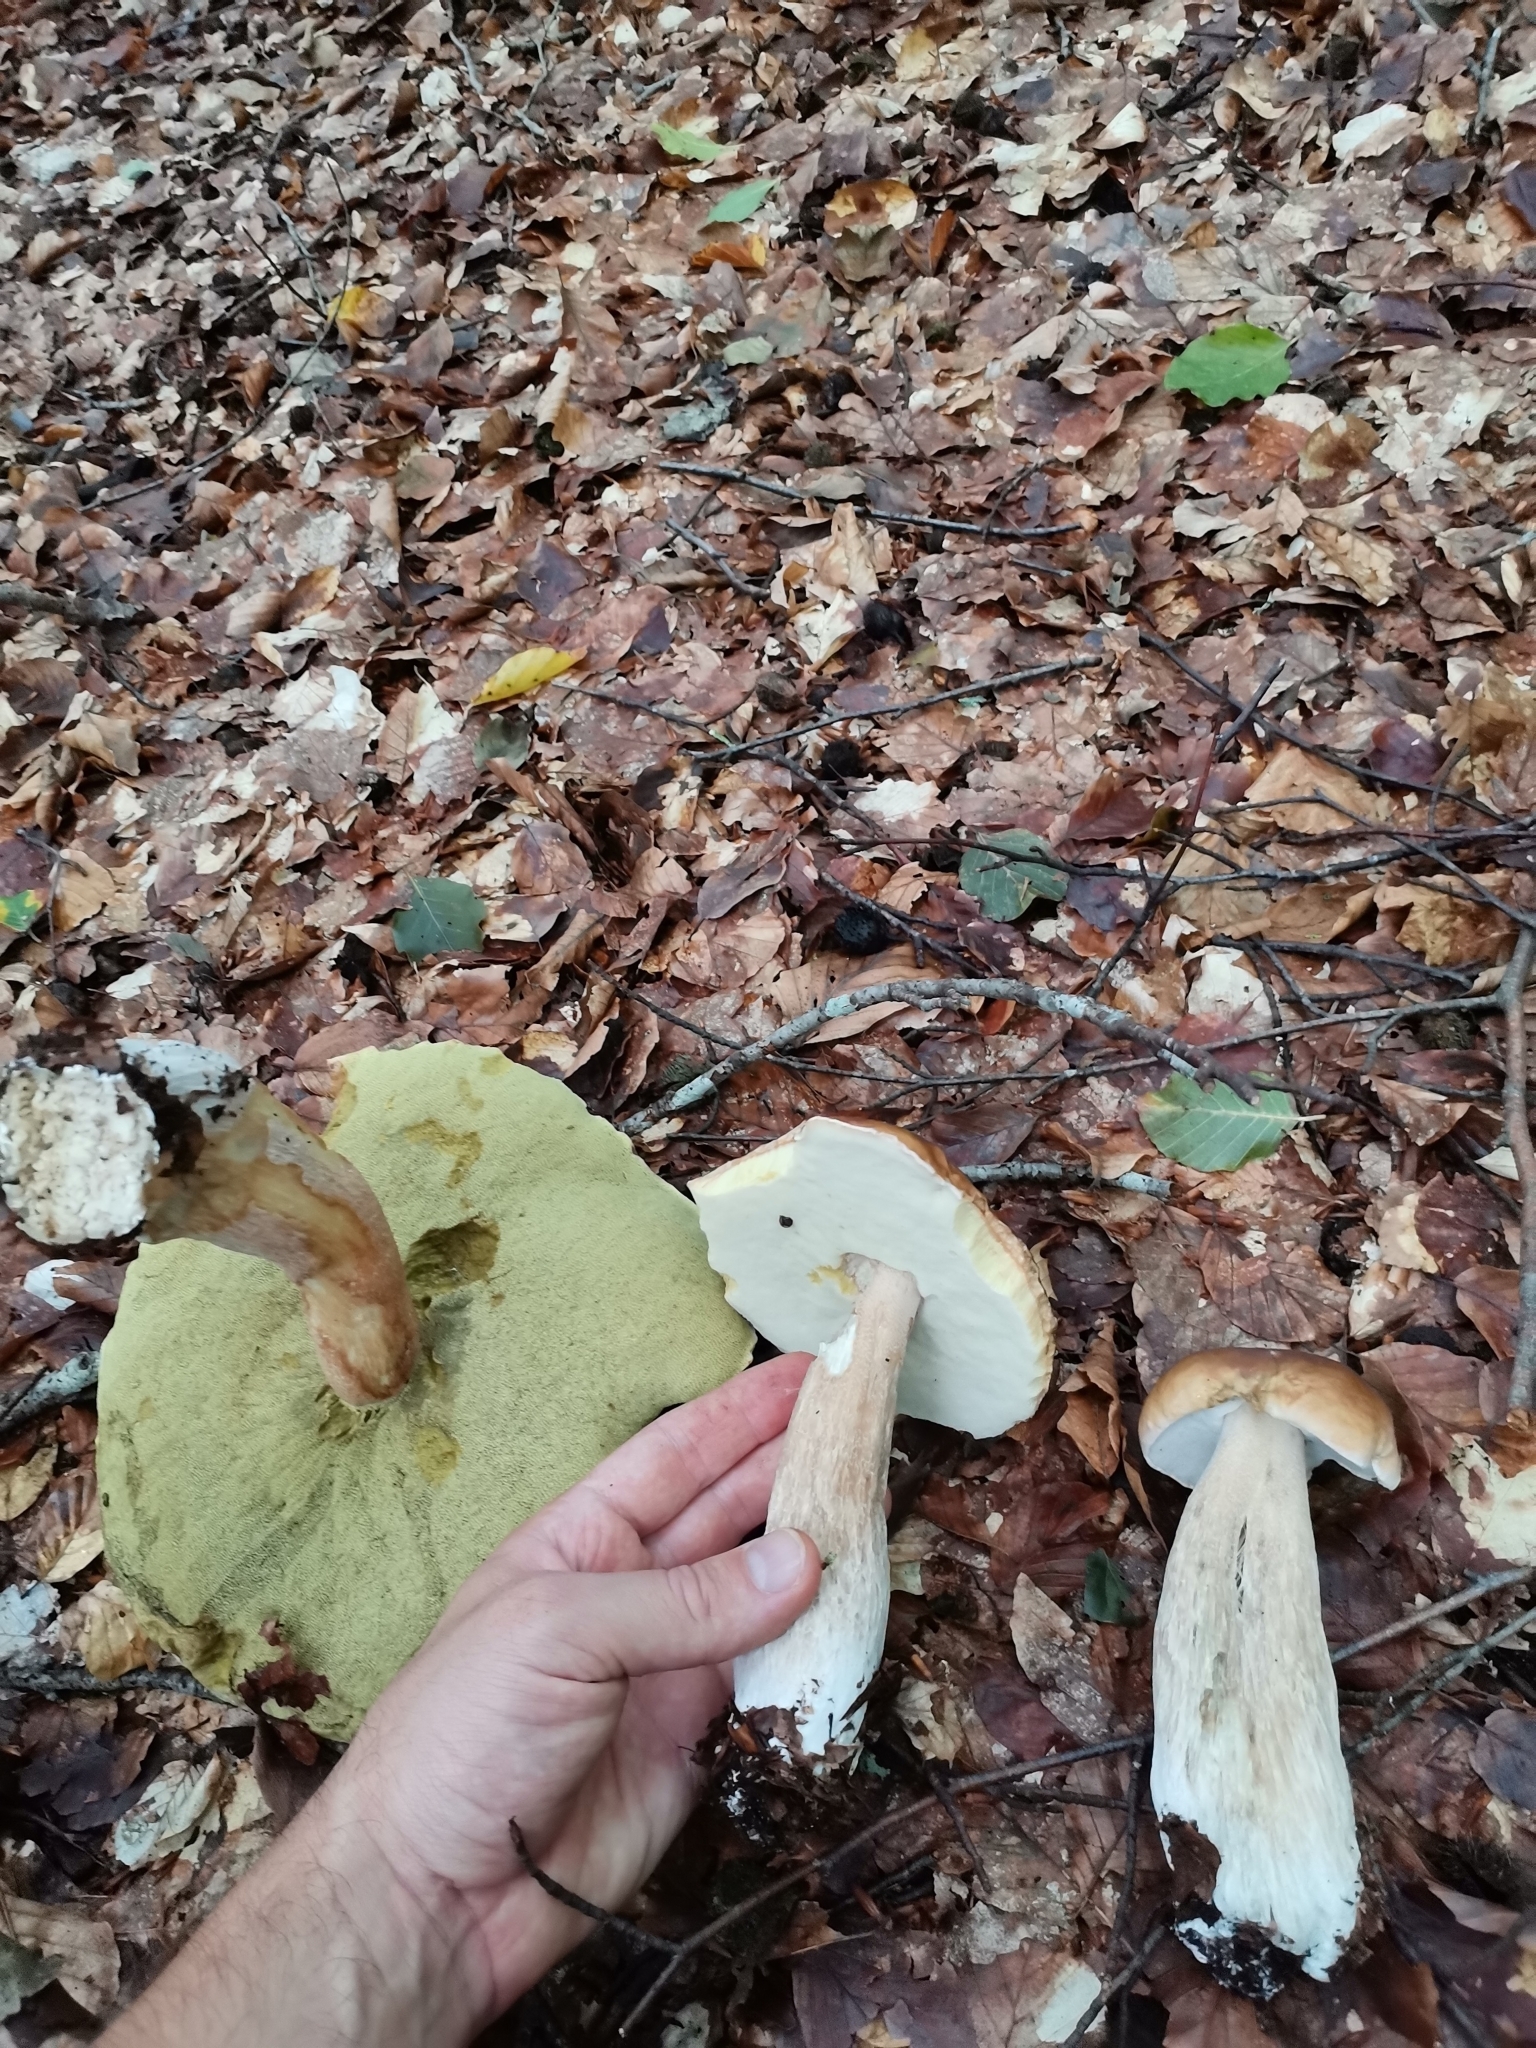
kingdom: Fungi
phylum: Basidiomycota
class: Agaricomycetes
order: Boletales
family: Boletaceae
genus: Boletus
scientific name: Boletus edulis
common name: Cep
